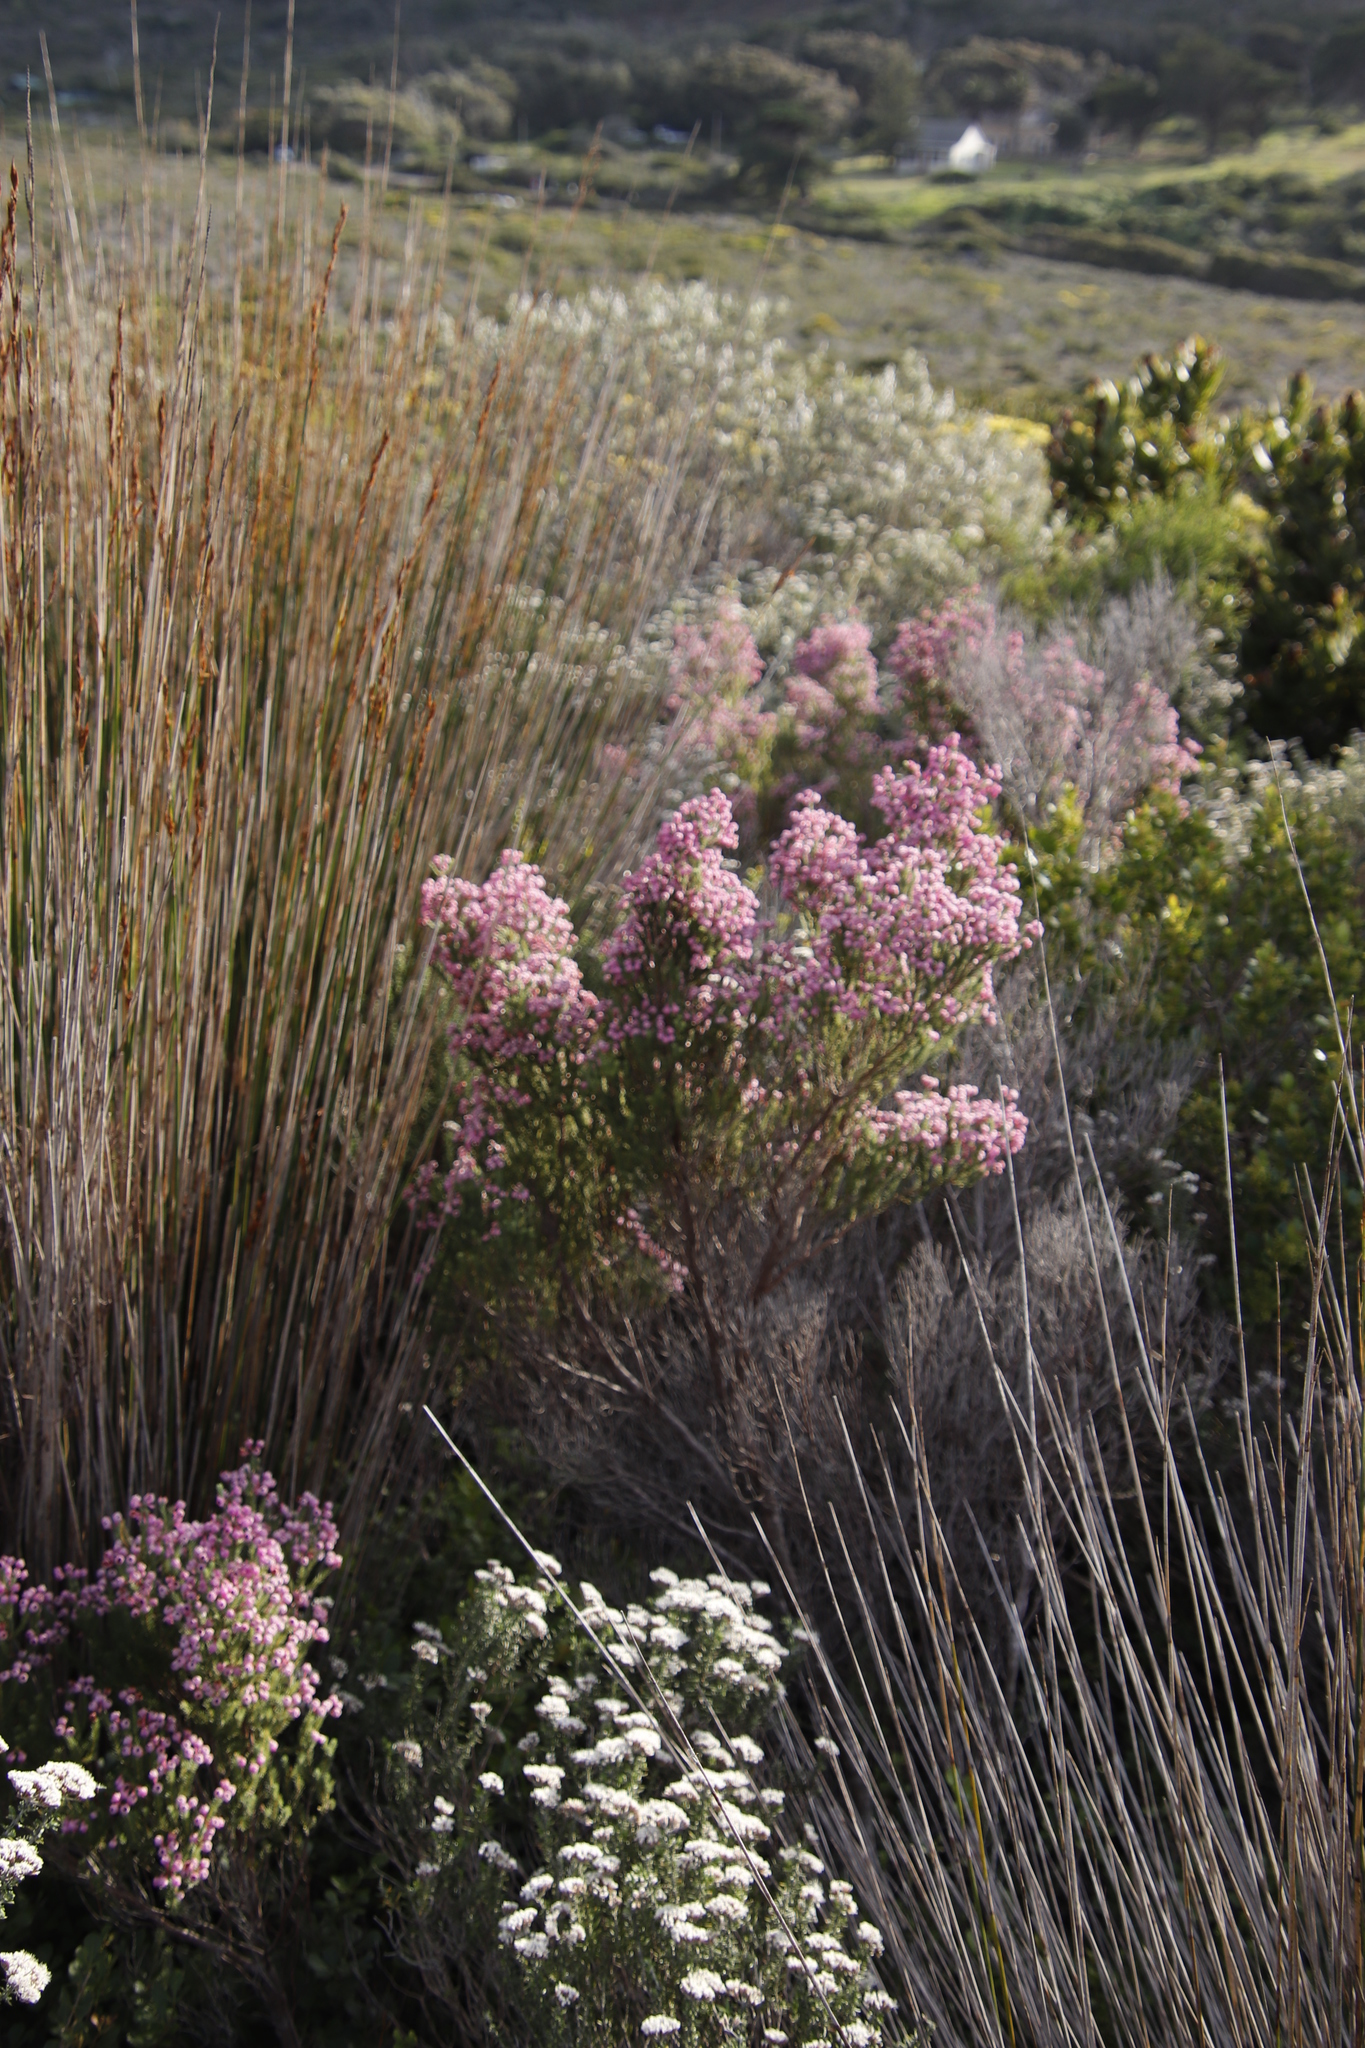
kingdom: Plantae
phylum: Tracheophyta
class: Magnoliopsida
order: Ericales
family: Ericaceae
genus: Erica
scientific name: Erica baccans
